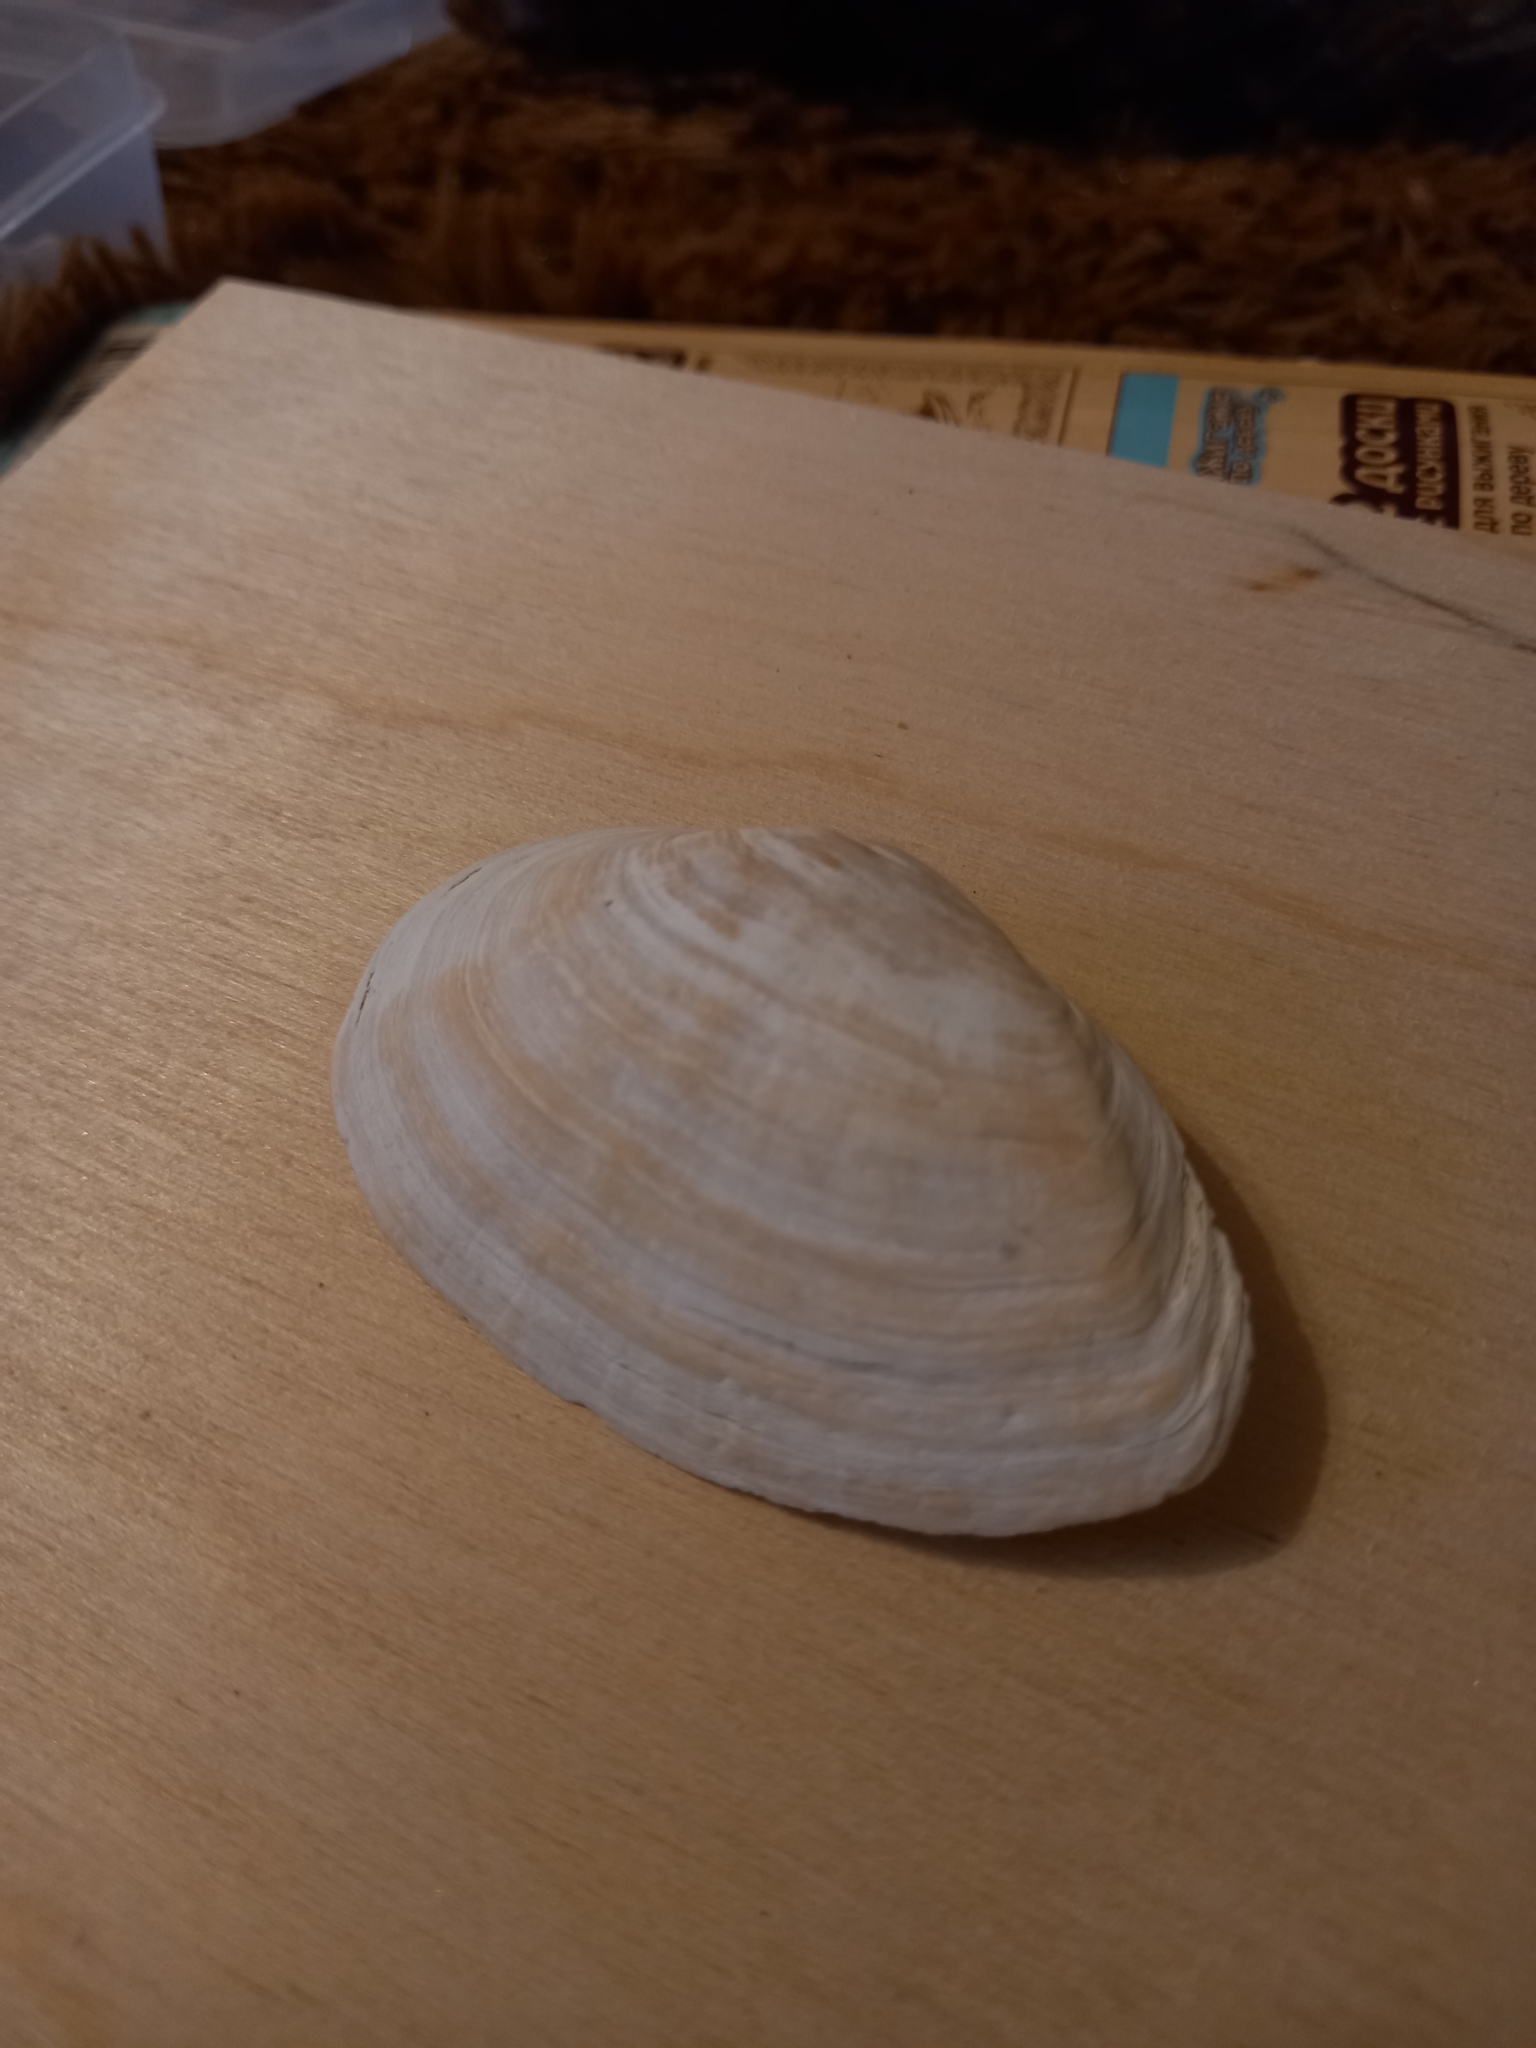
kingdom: Animalia
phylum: Mollusca
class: Bivalvia
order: Myida
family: Myidae
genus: Mya
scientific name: Mya arenaria
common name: Soft-shelled clam
